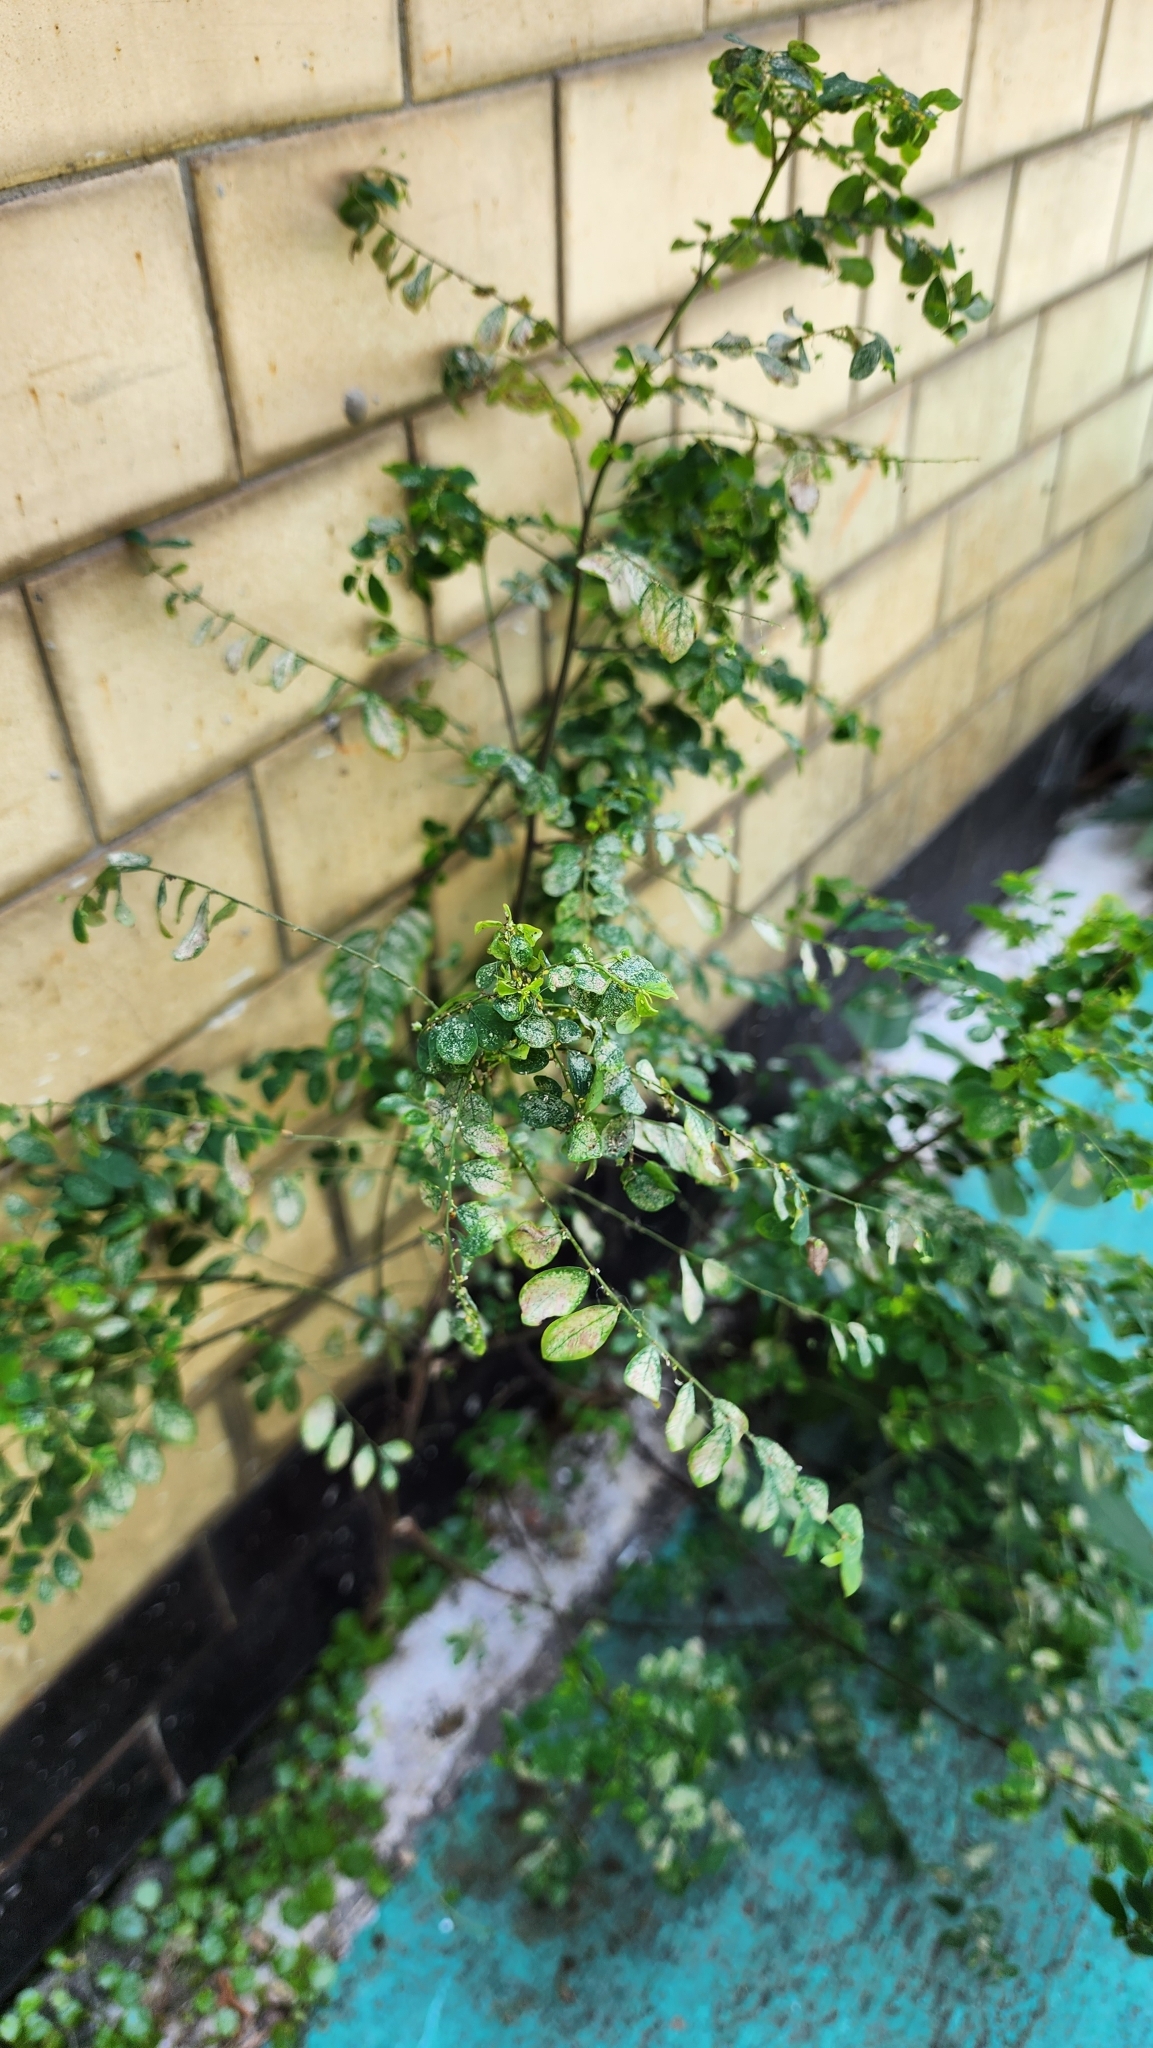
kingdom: Plantae
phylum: Tracheophyta
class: Magnoliopsida
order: Malpighiales
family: Phyllanthaceae
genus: Phyllanthus
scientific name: Phyllanthus tenellus
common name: Mascarene island leaf-flower
